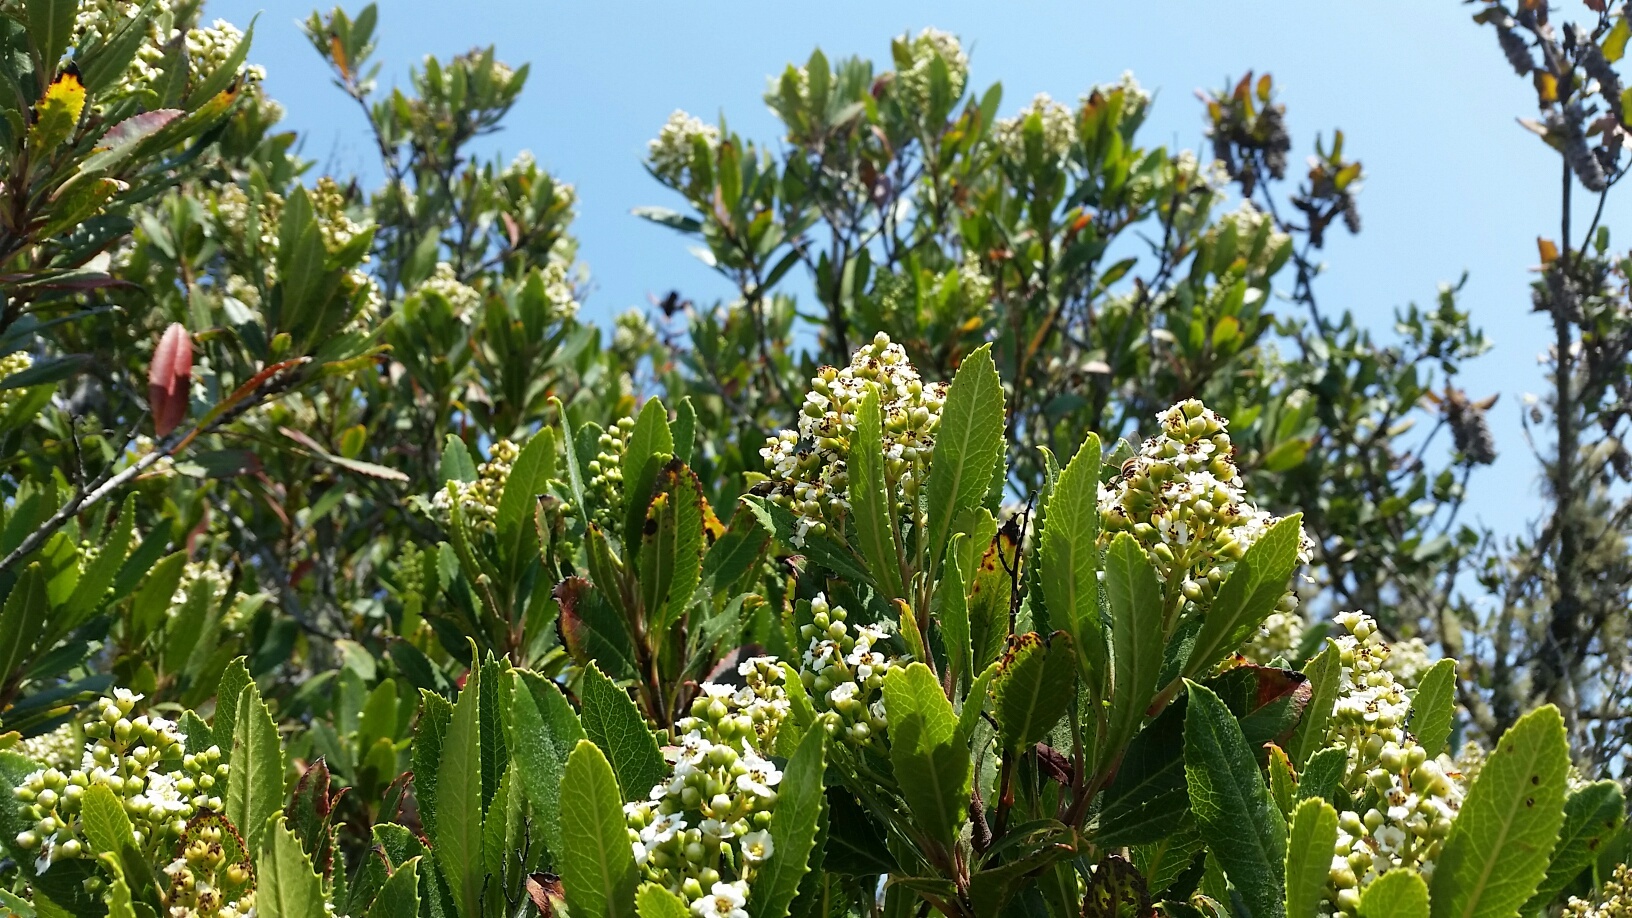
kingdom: Plantae
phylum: Tracheophyta
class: Magnoliopsida
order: Rosales
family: Rosaceae
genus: Heteromeles
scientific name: Heteromeles arbutifolia
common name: California-holly
